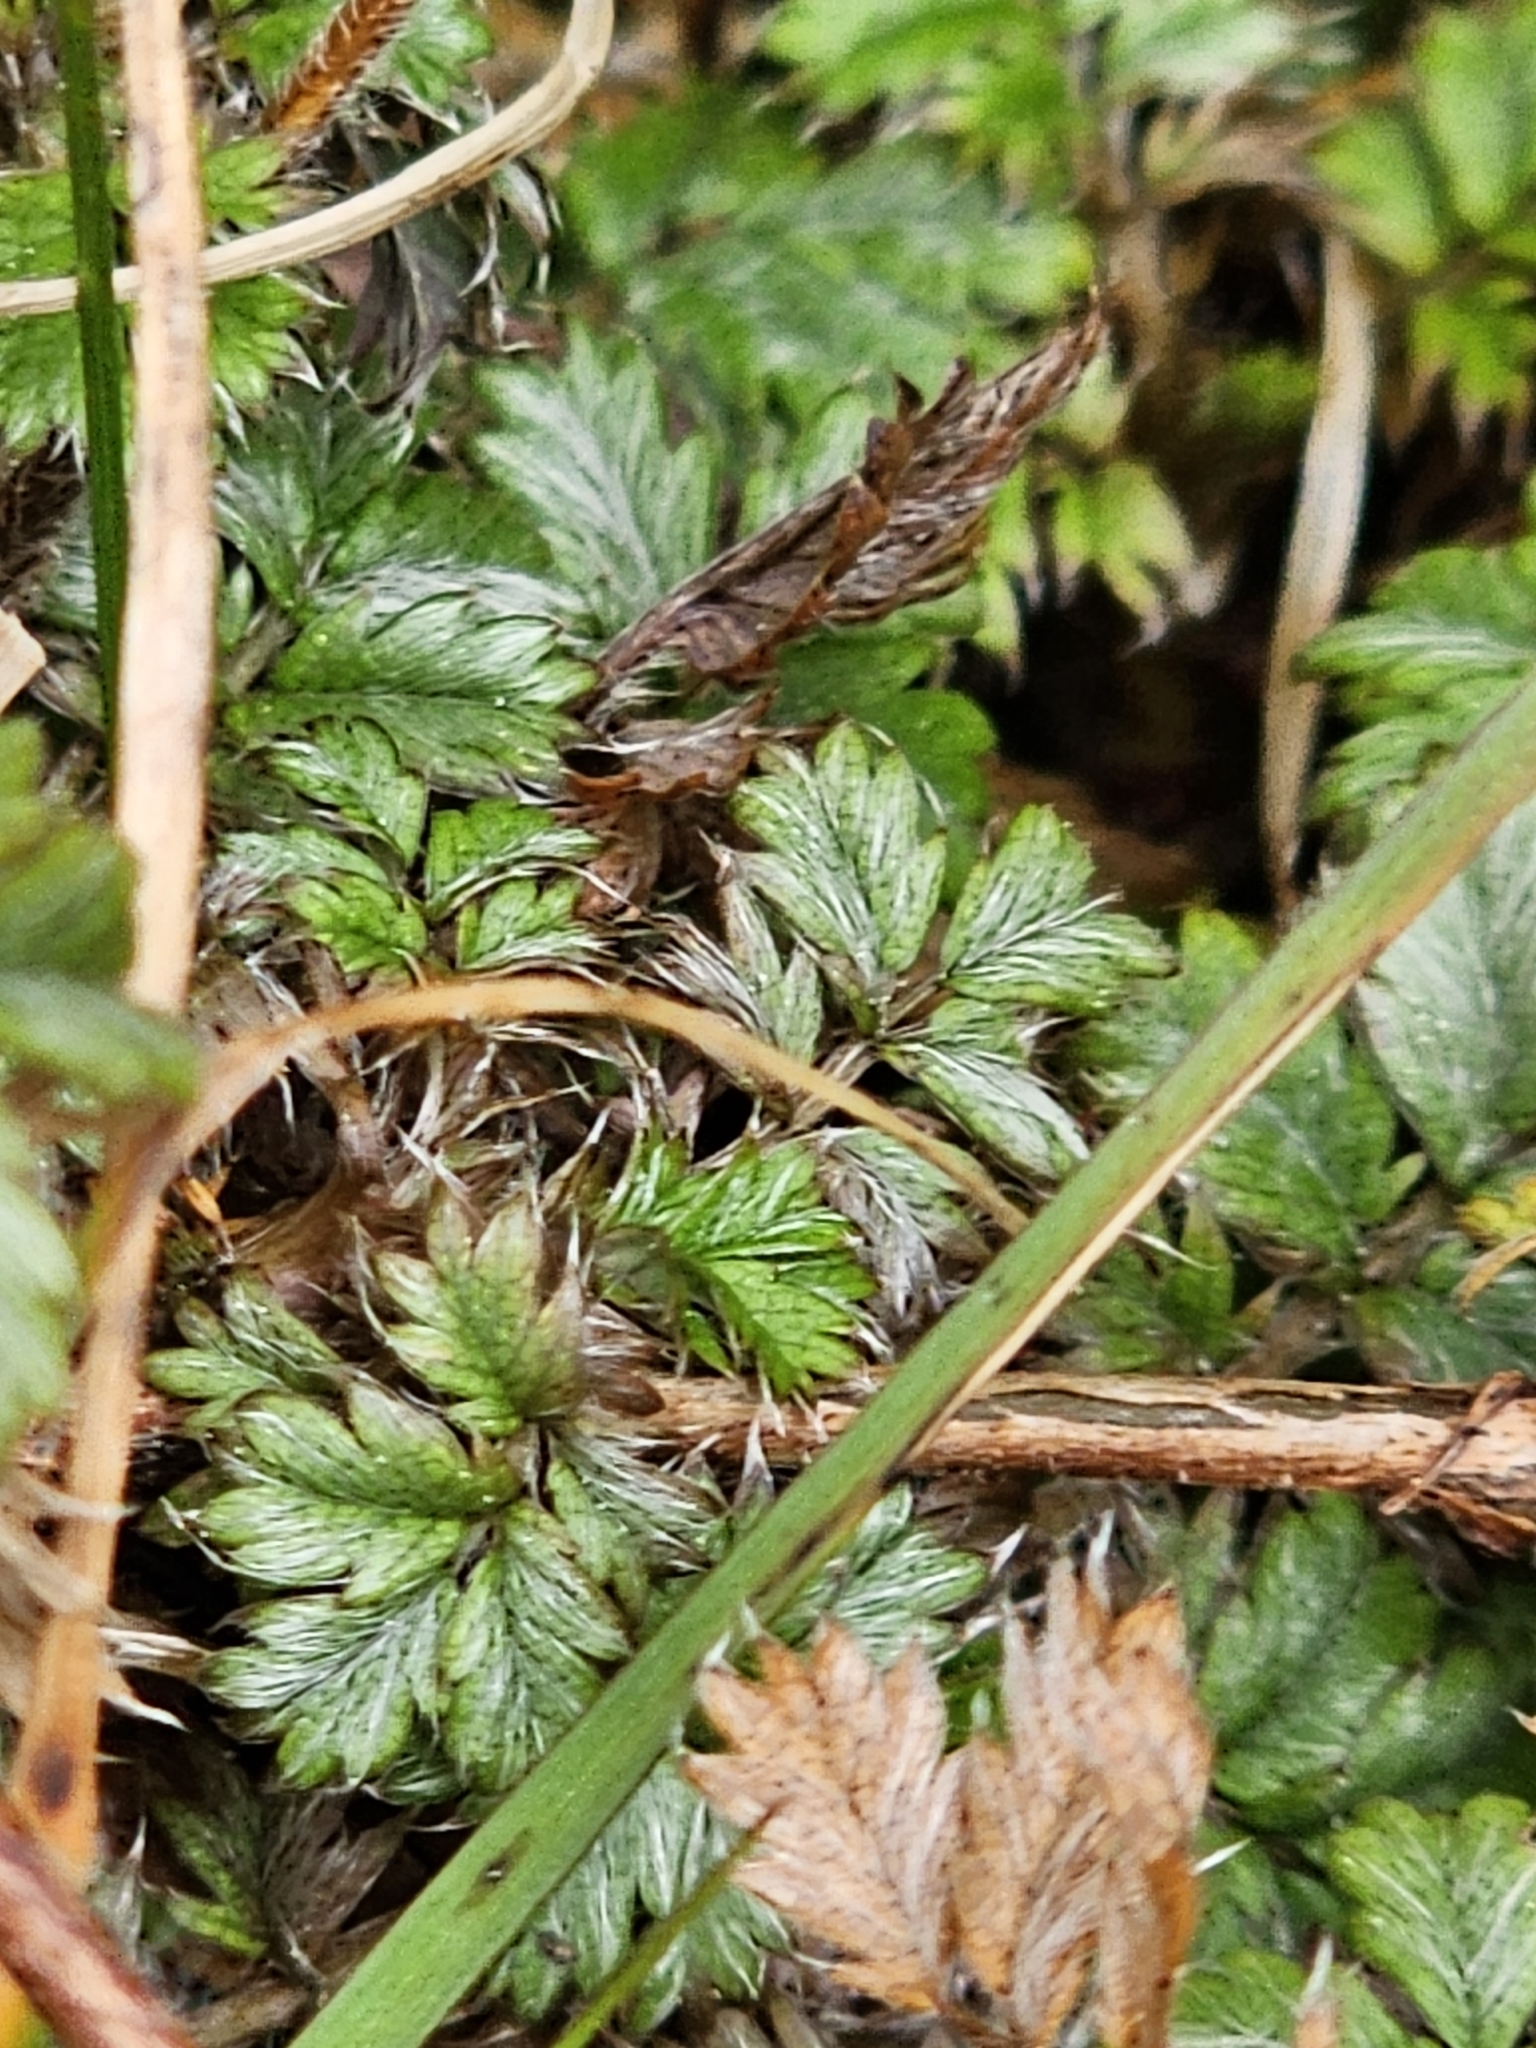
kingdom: Plantae
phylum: Tracheophyta
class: Magnoliopsida
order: Rosales
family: Rosaceae
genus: Acaena
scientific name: Acaena anserinifolia
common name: Bronze pirri-pirri-bur
